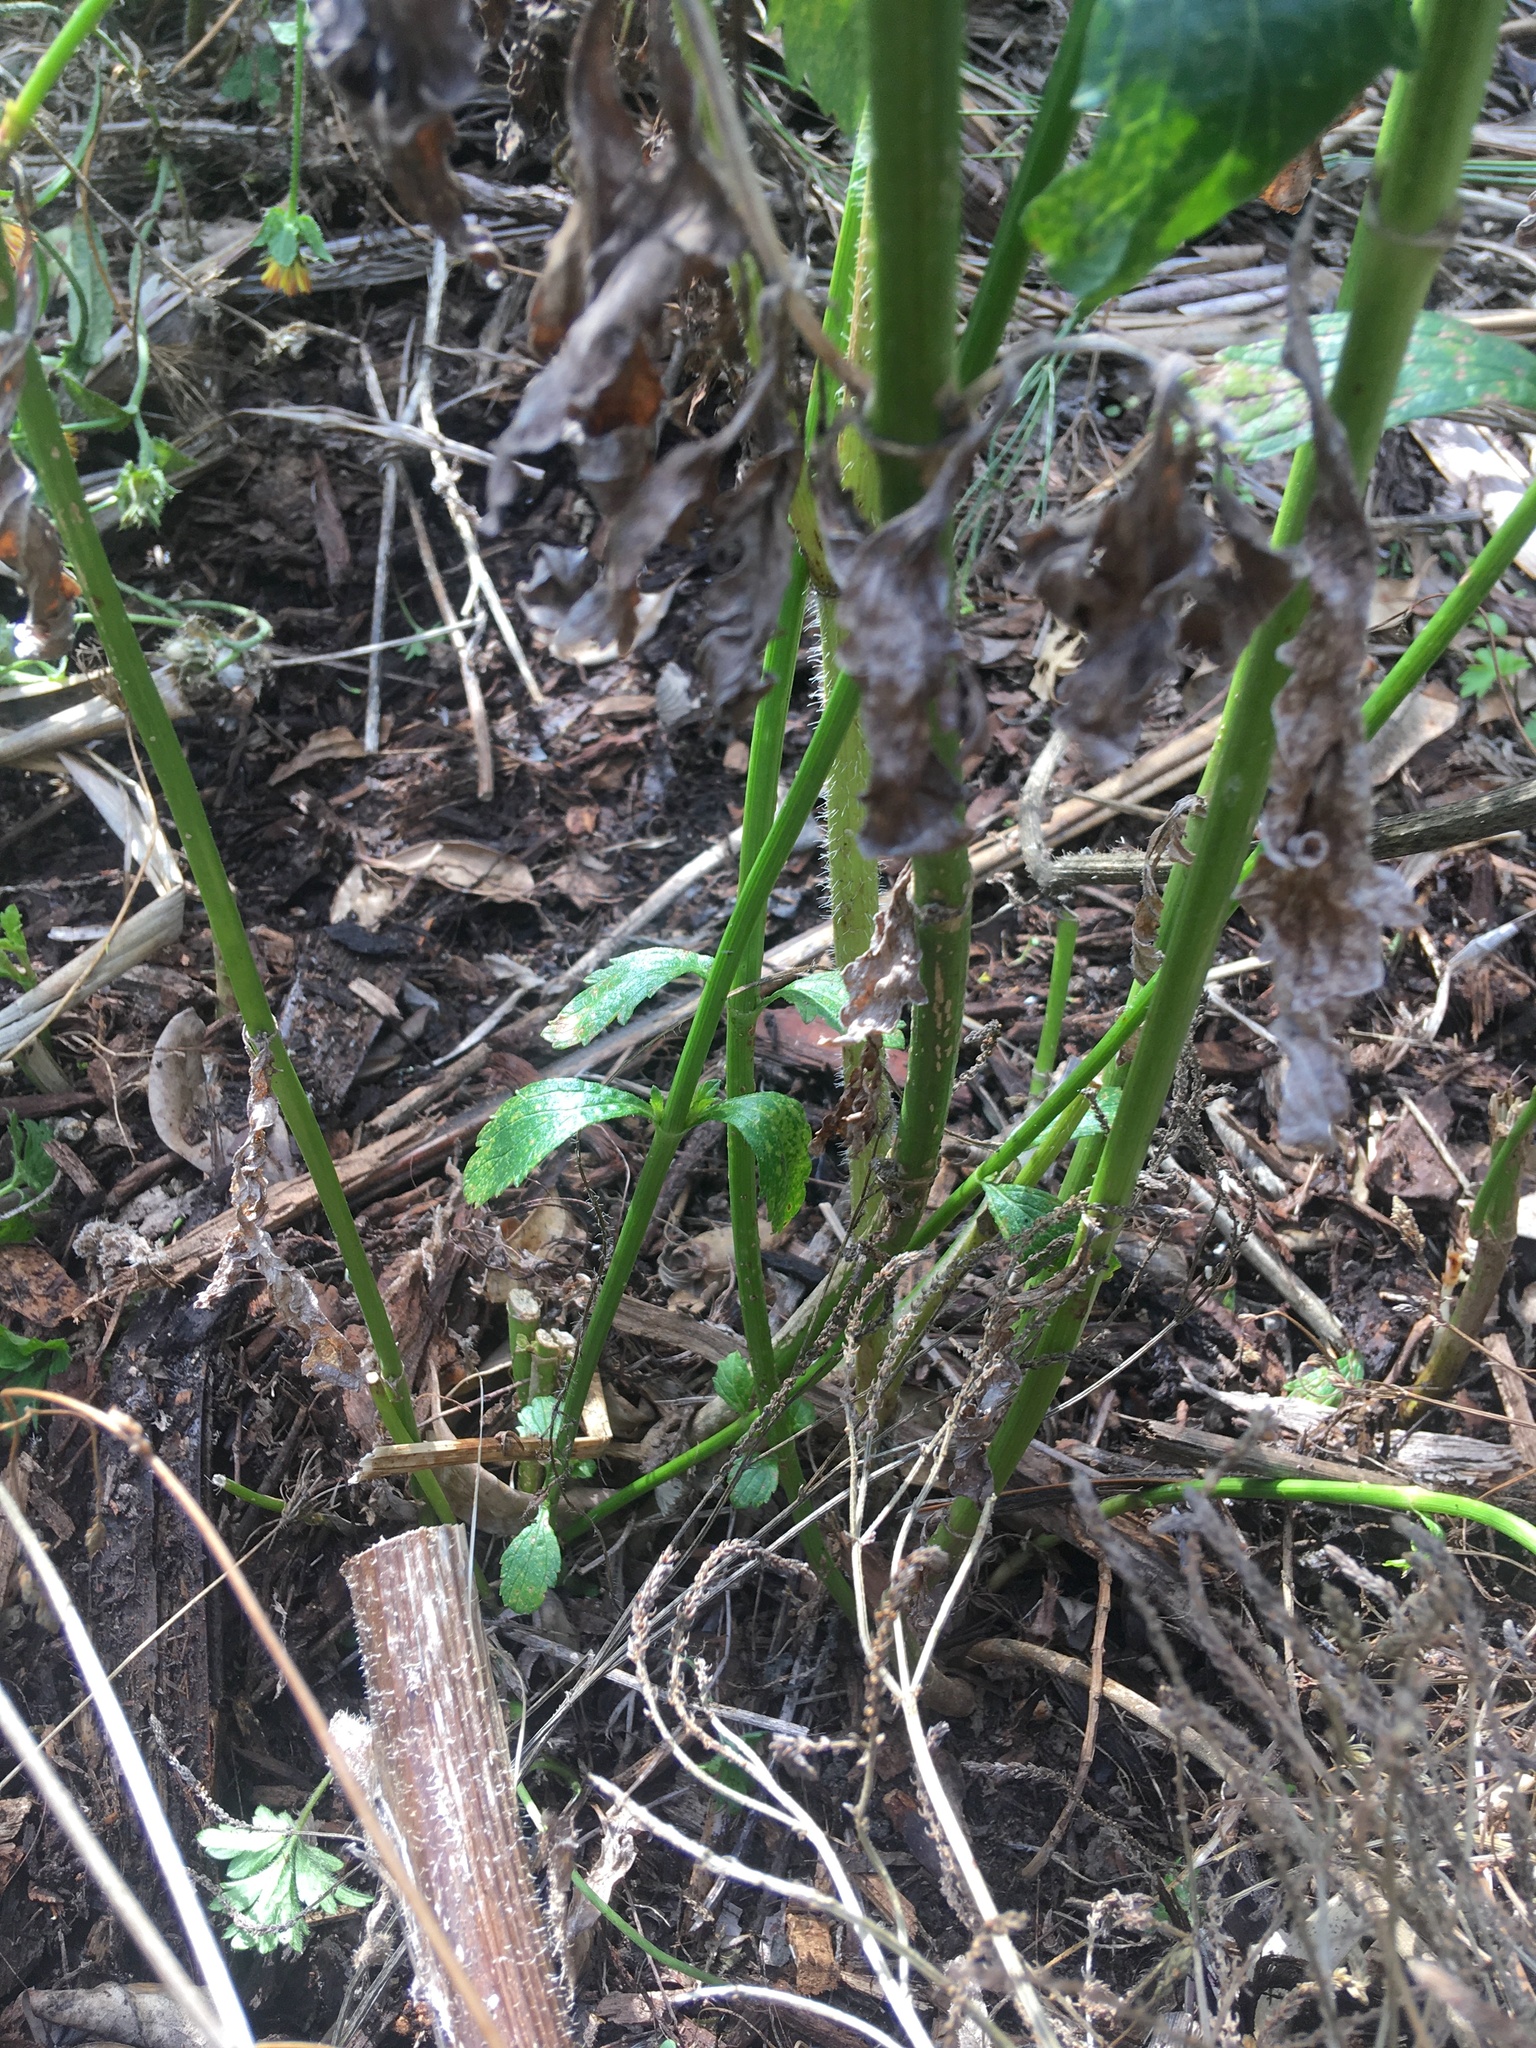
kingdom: Plantae
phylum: Tracheophyta
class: Magnoliopsida
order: Lamiales
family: Verbenaceae
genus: Verbena
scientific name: Verbena litoralis
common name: Seashore vervain
